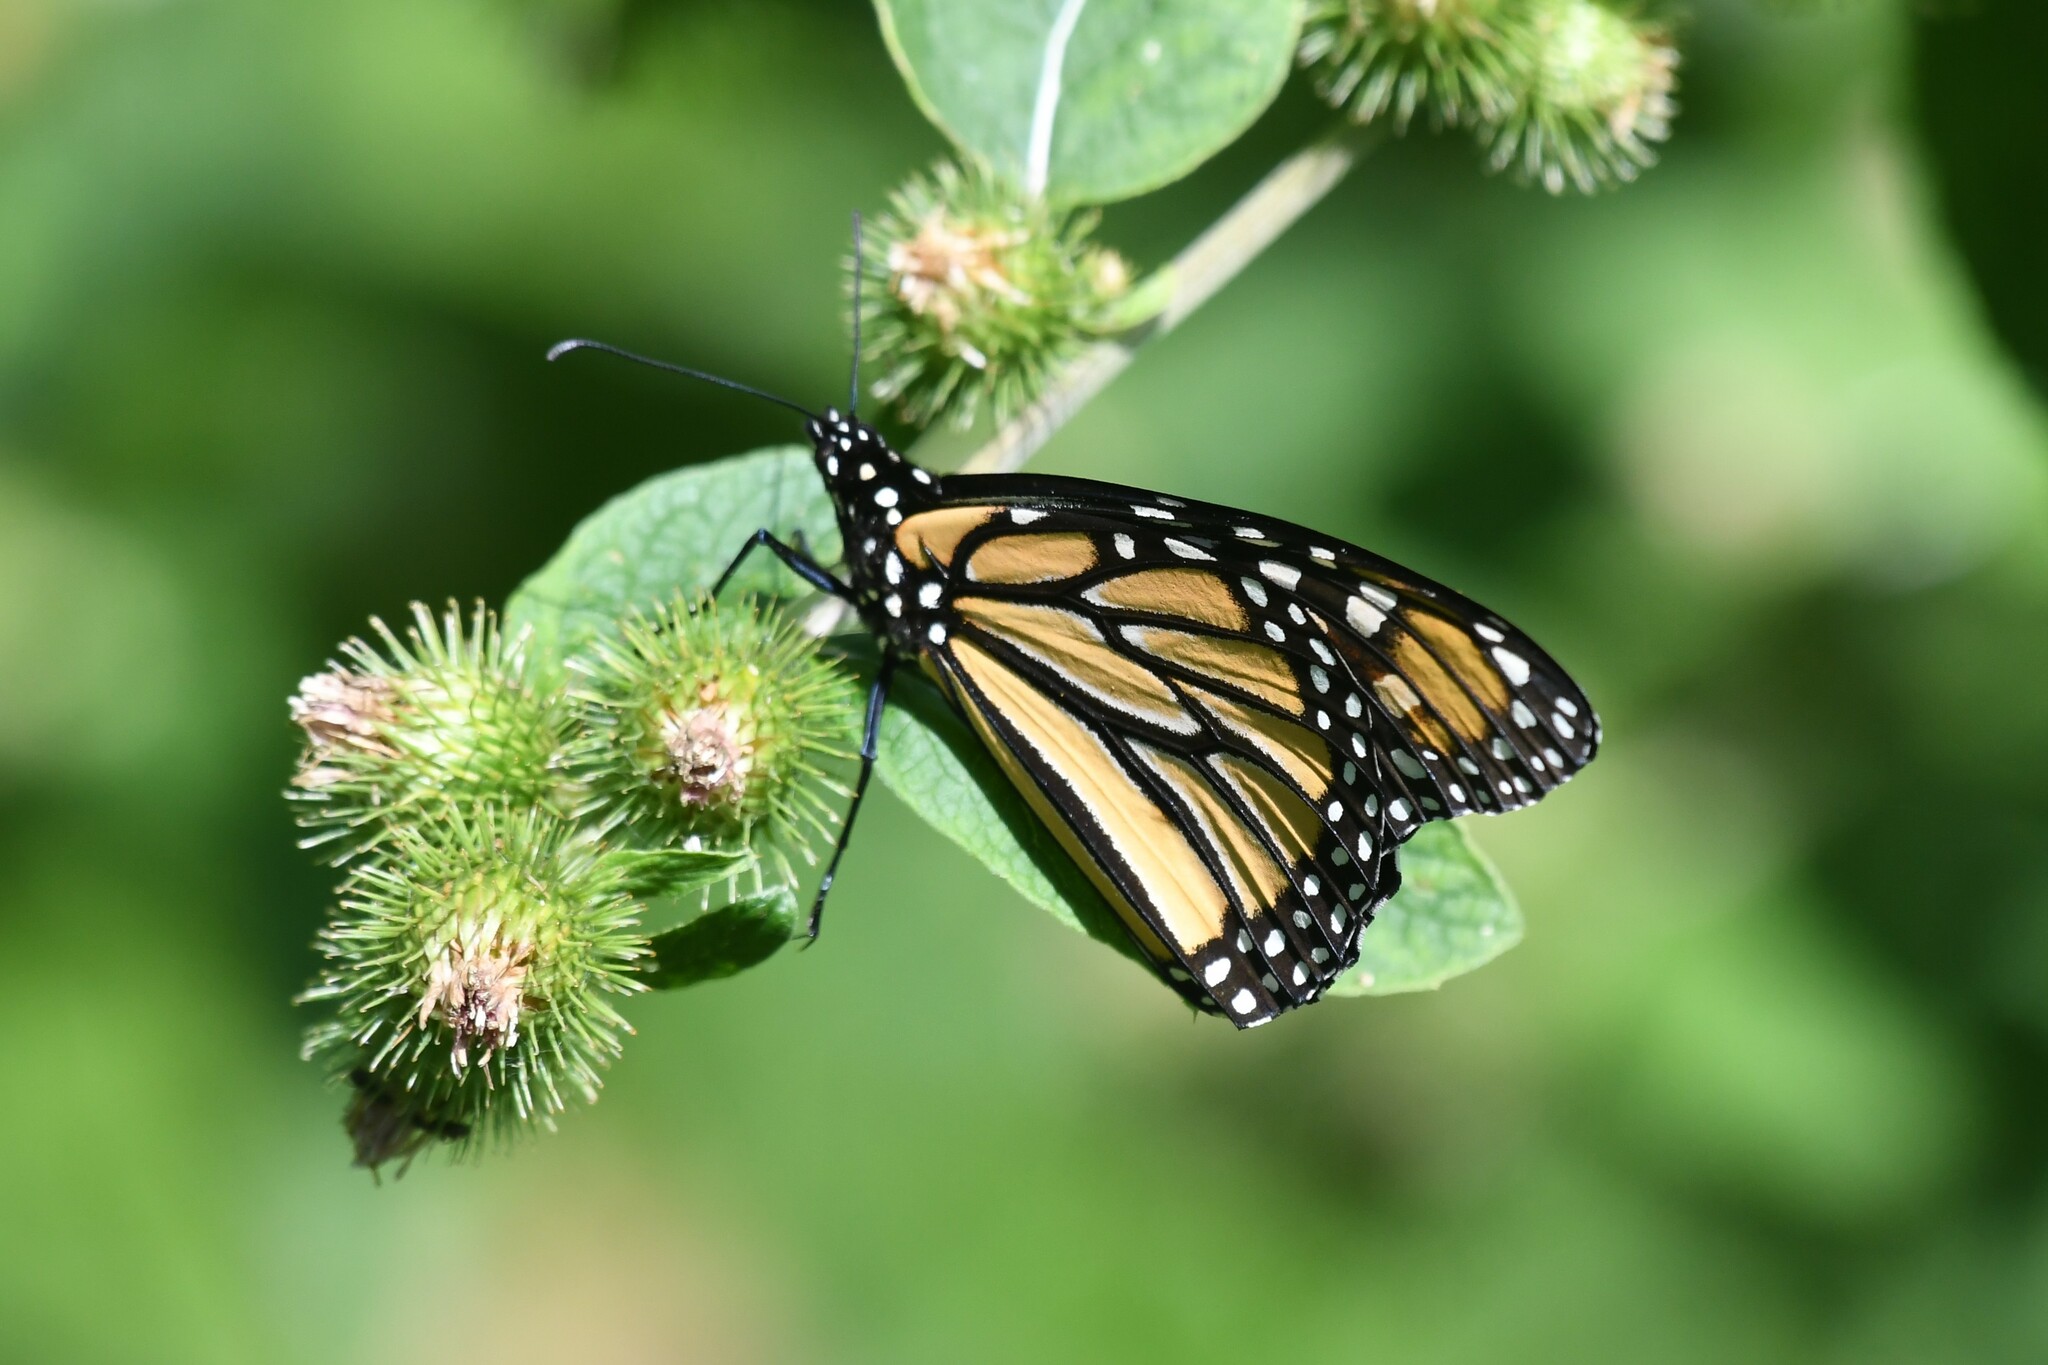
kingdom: Animalia
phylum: Arthropoda
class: Insecta
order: Lepidoptera
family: Nymphalidae
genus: Danaus
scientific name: Danaus plexippus
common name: Monarch
